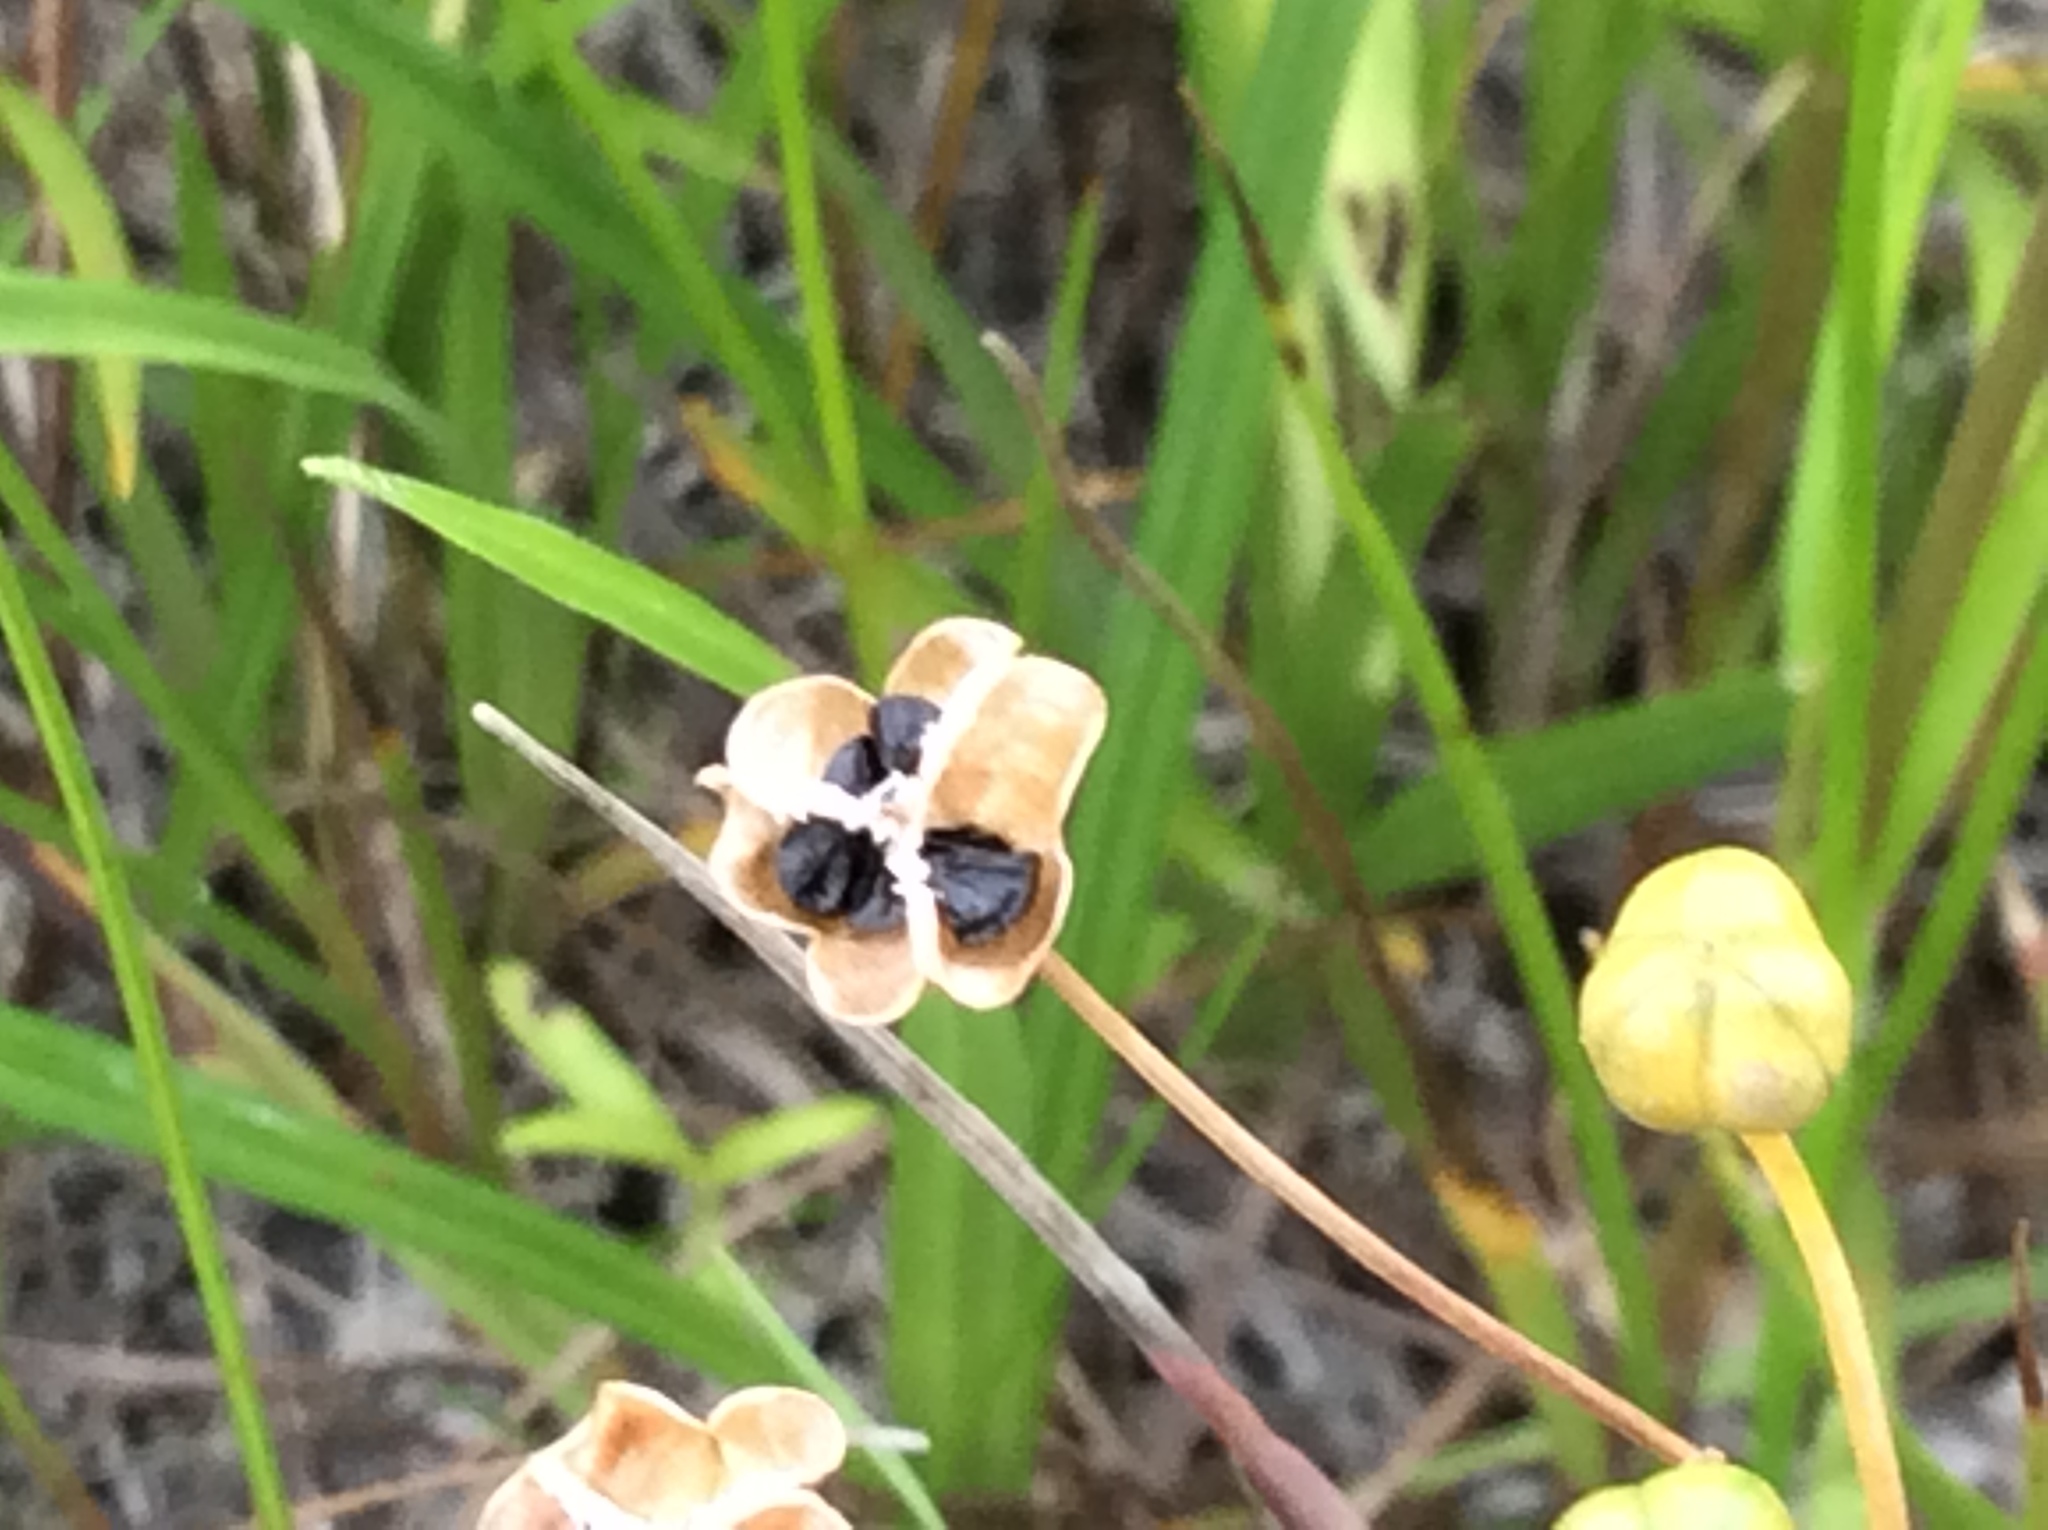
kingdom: Plantae
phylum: Tracheophyta
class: Liliopsida
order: Asparagales
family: Amaryllidaceae
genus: Nothoscordum
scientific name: Nothoscordum bivalve
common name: Crow-poison
